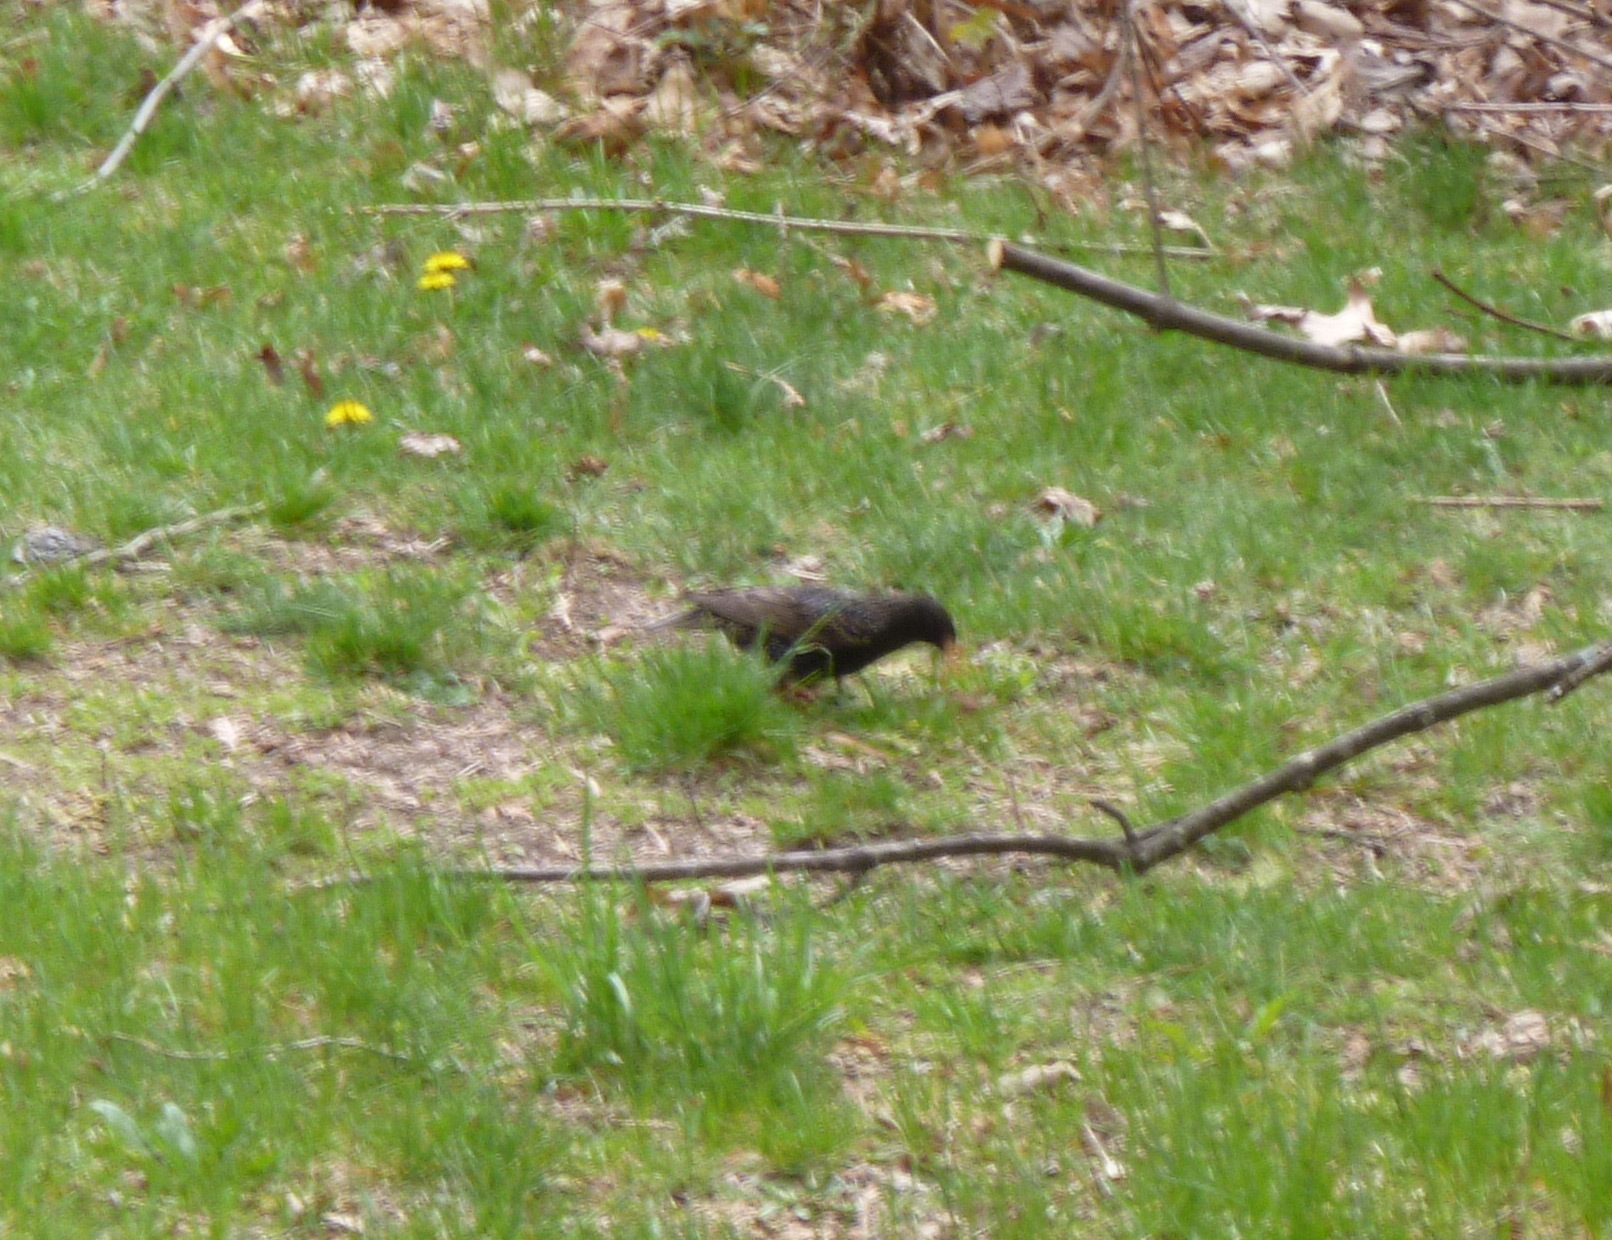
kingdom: Animalia
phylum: Chordata
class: Aves
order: Passeriformes
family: Sturnidae
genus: Sturnus
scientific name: Sturnus vulgaris
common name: Common starling
